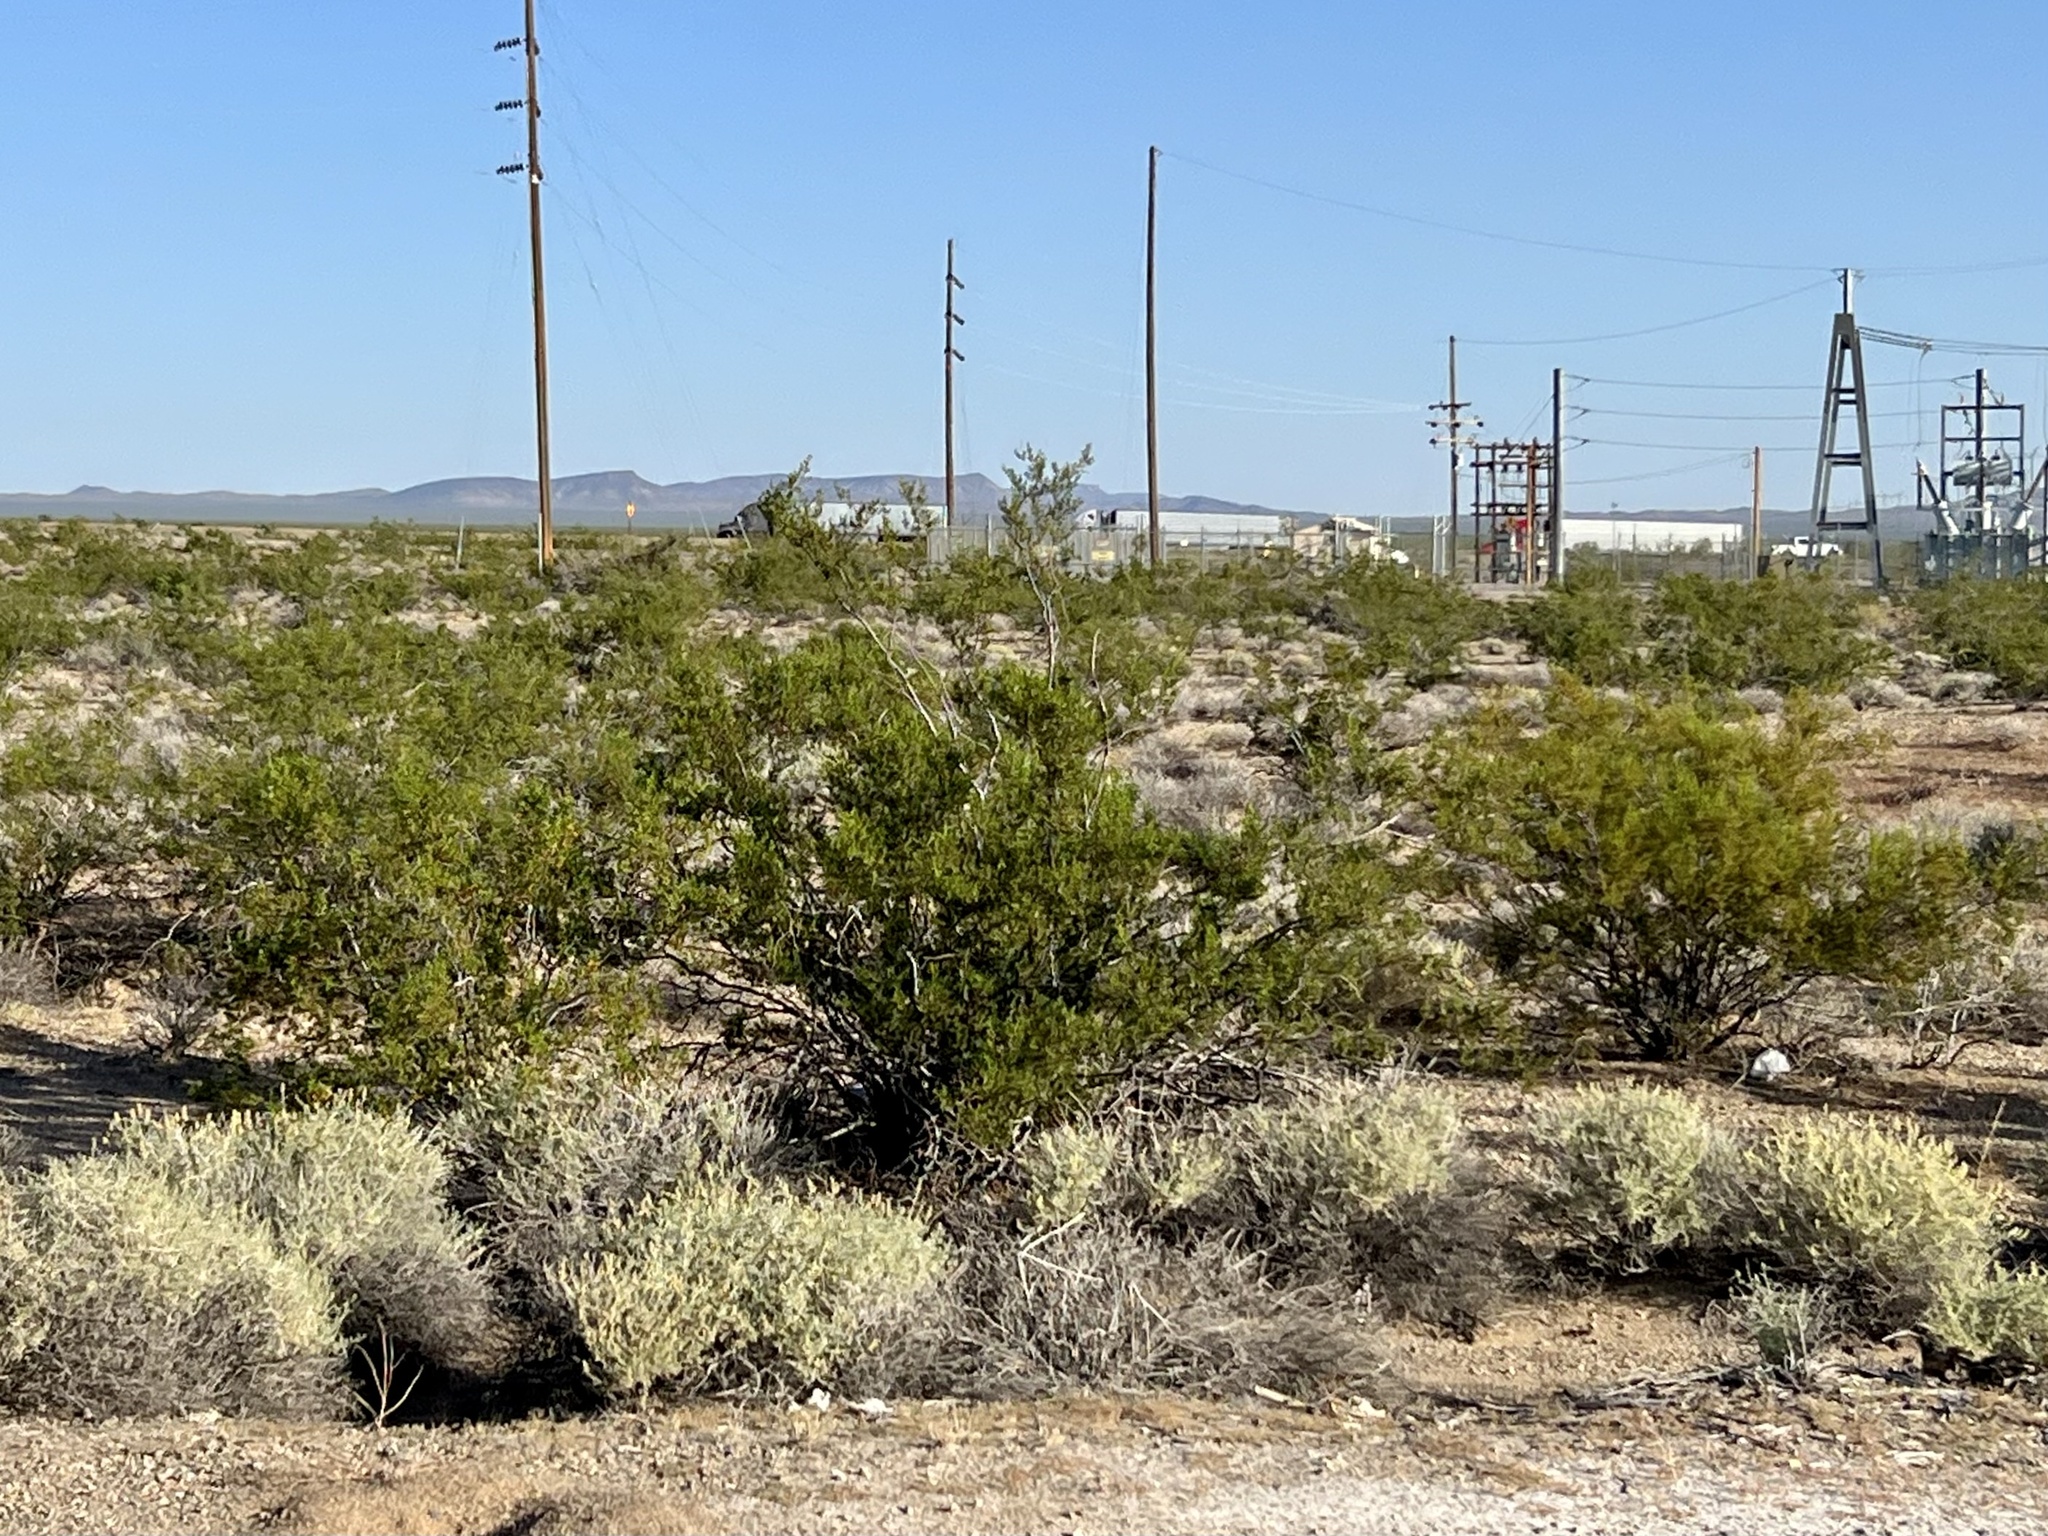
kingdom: Plantae
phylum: Tracheophyta
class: Magnoliopsida
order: Zygophyllales
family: Zygophyllaceae
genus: Larrea
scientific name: Larrea tridentata
